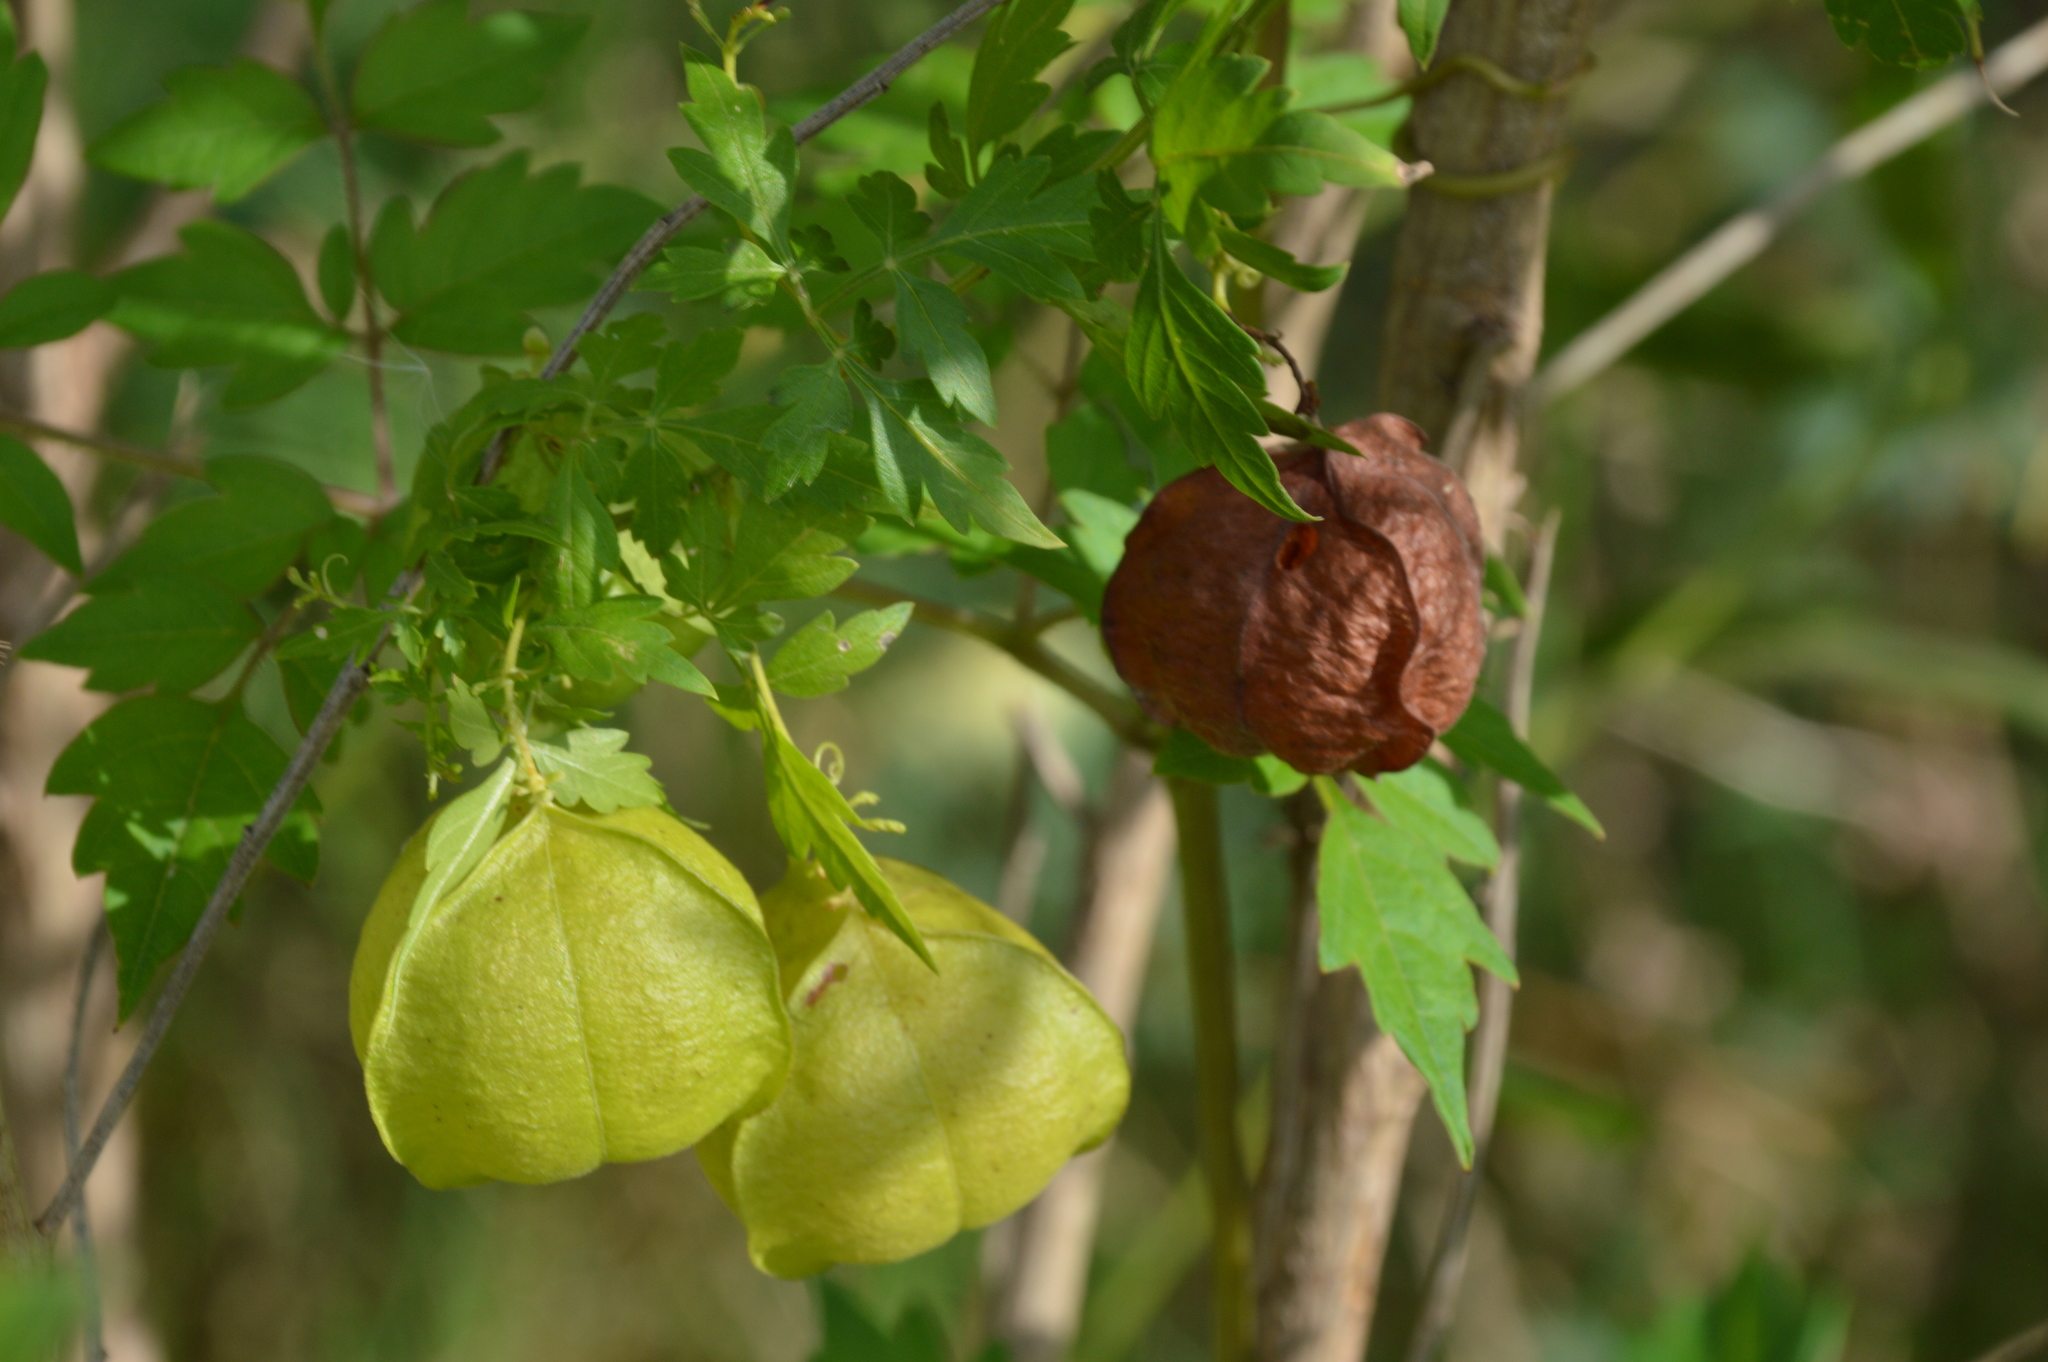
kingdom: Plantae
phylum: Tracheophyta
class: Magnoliopsida
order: Sapindales
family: Sapindaceae
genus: Cardiospermum
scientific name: Cardiospermum halicacabum
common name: Balloon vine
